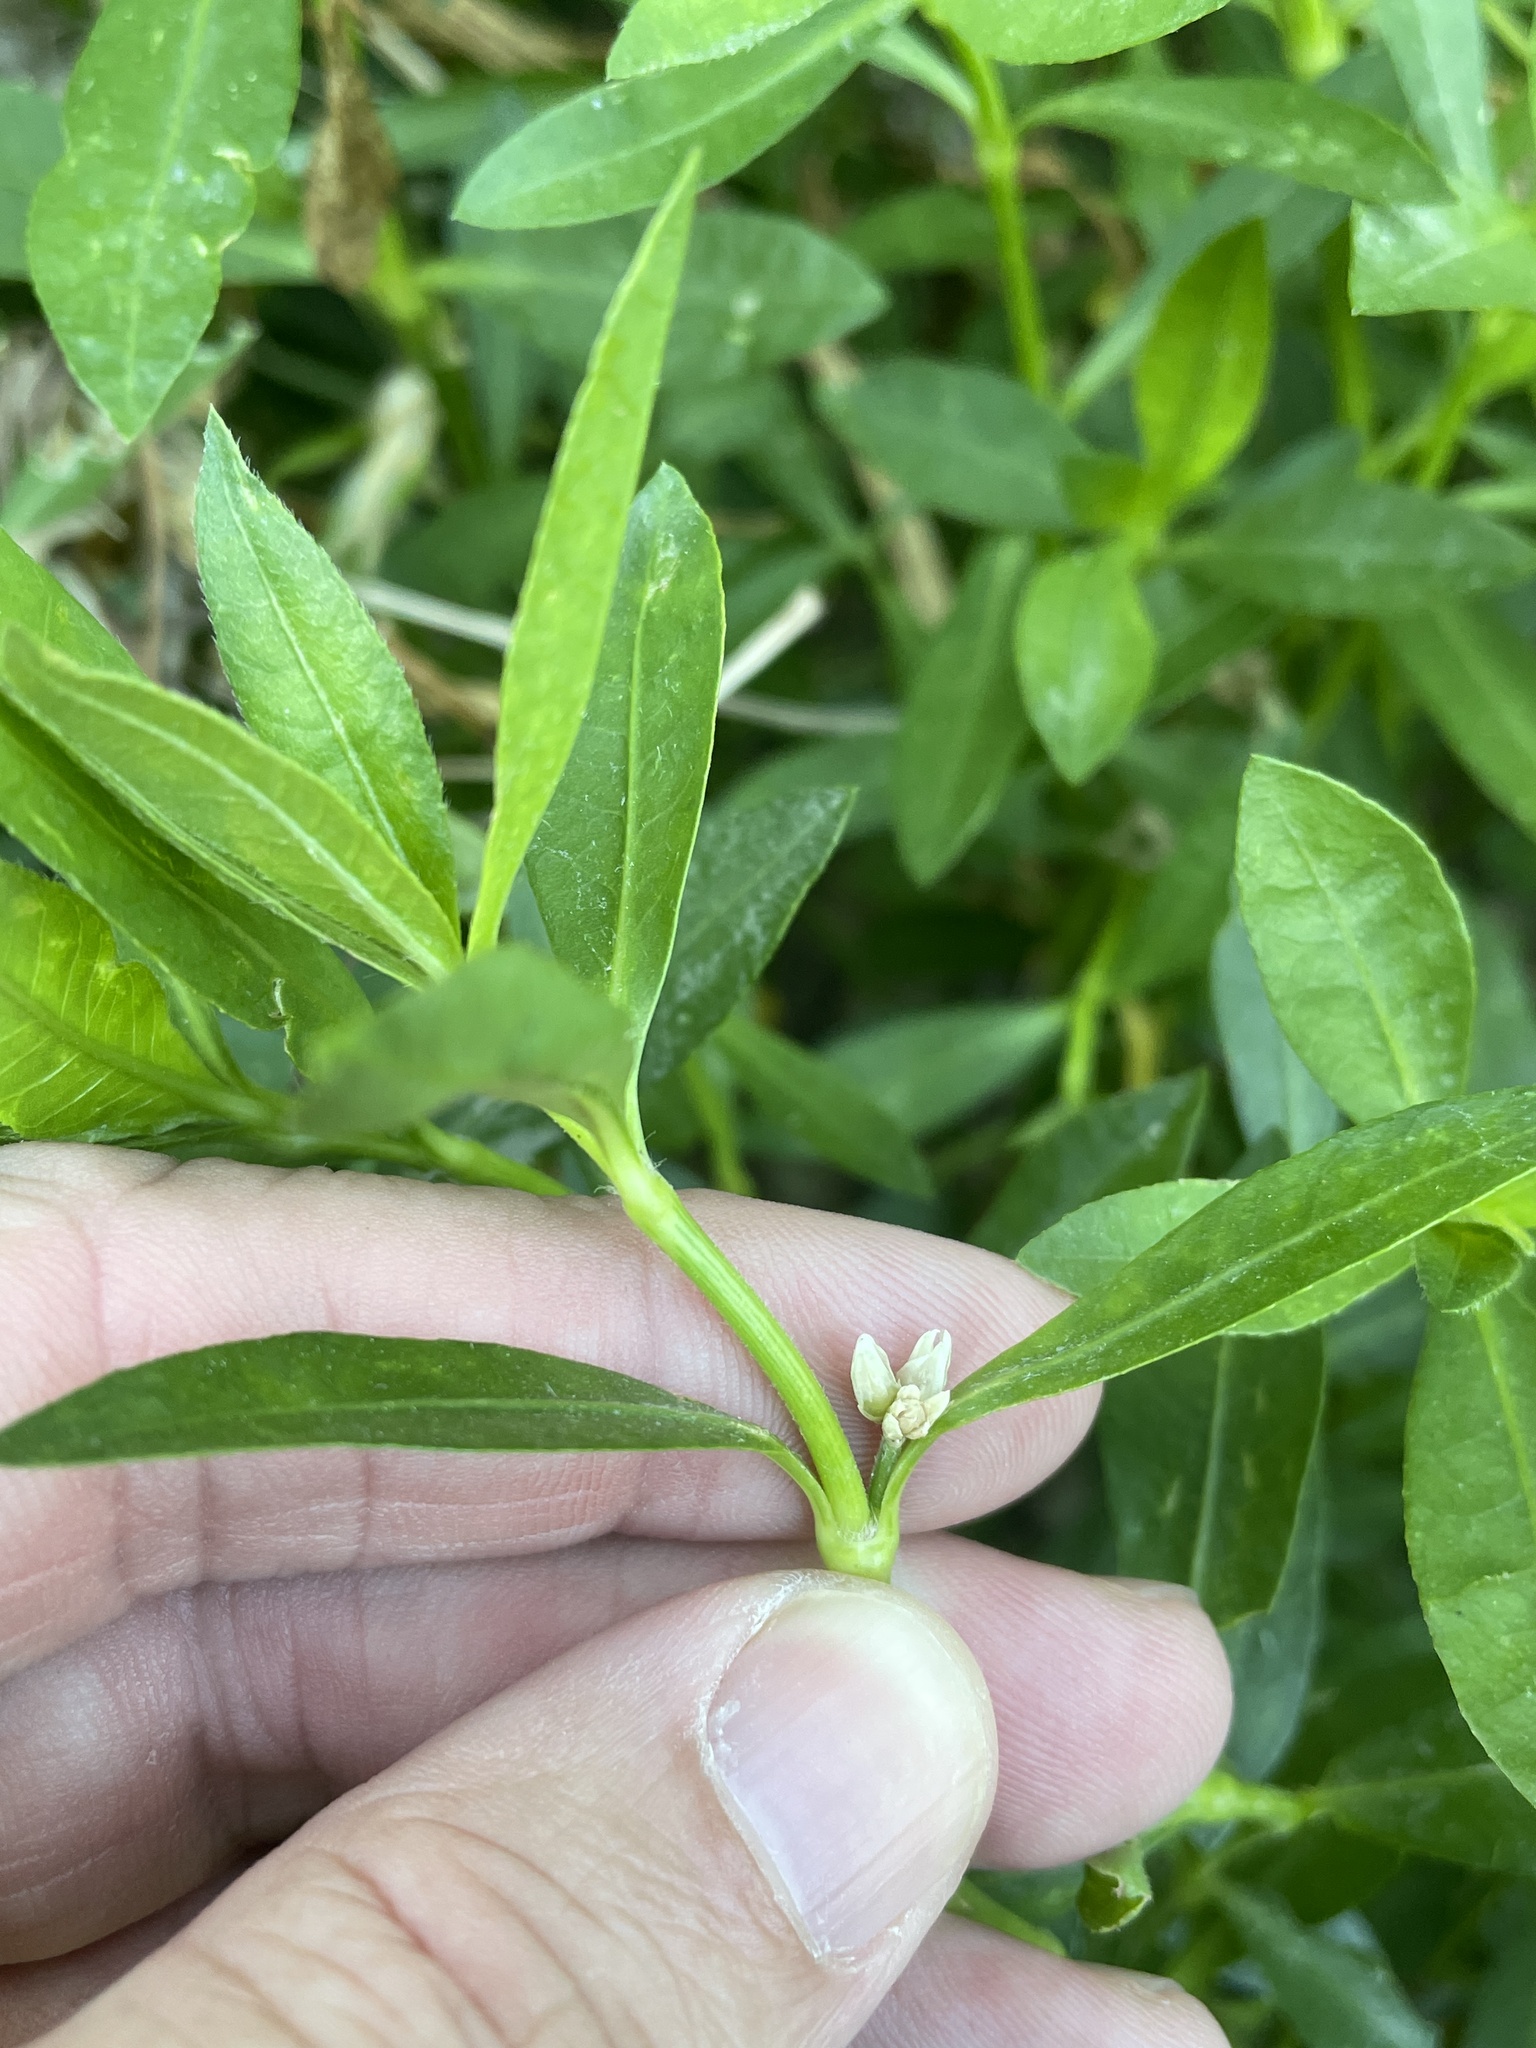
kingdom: Plantae
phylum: Tracheophyta
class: Magnoliopsida
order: Caryophyllales
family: Amaranthaceae
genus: Alternanthera
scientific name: Alternanthera philoxeroides
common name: Alligatorweed
